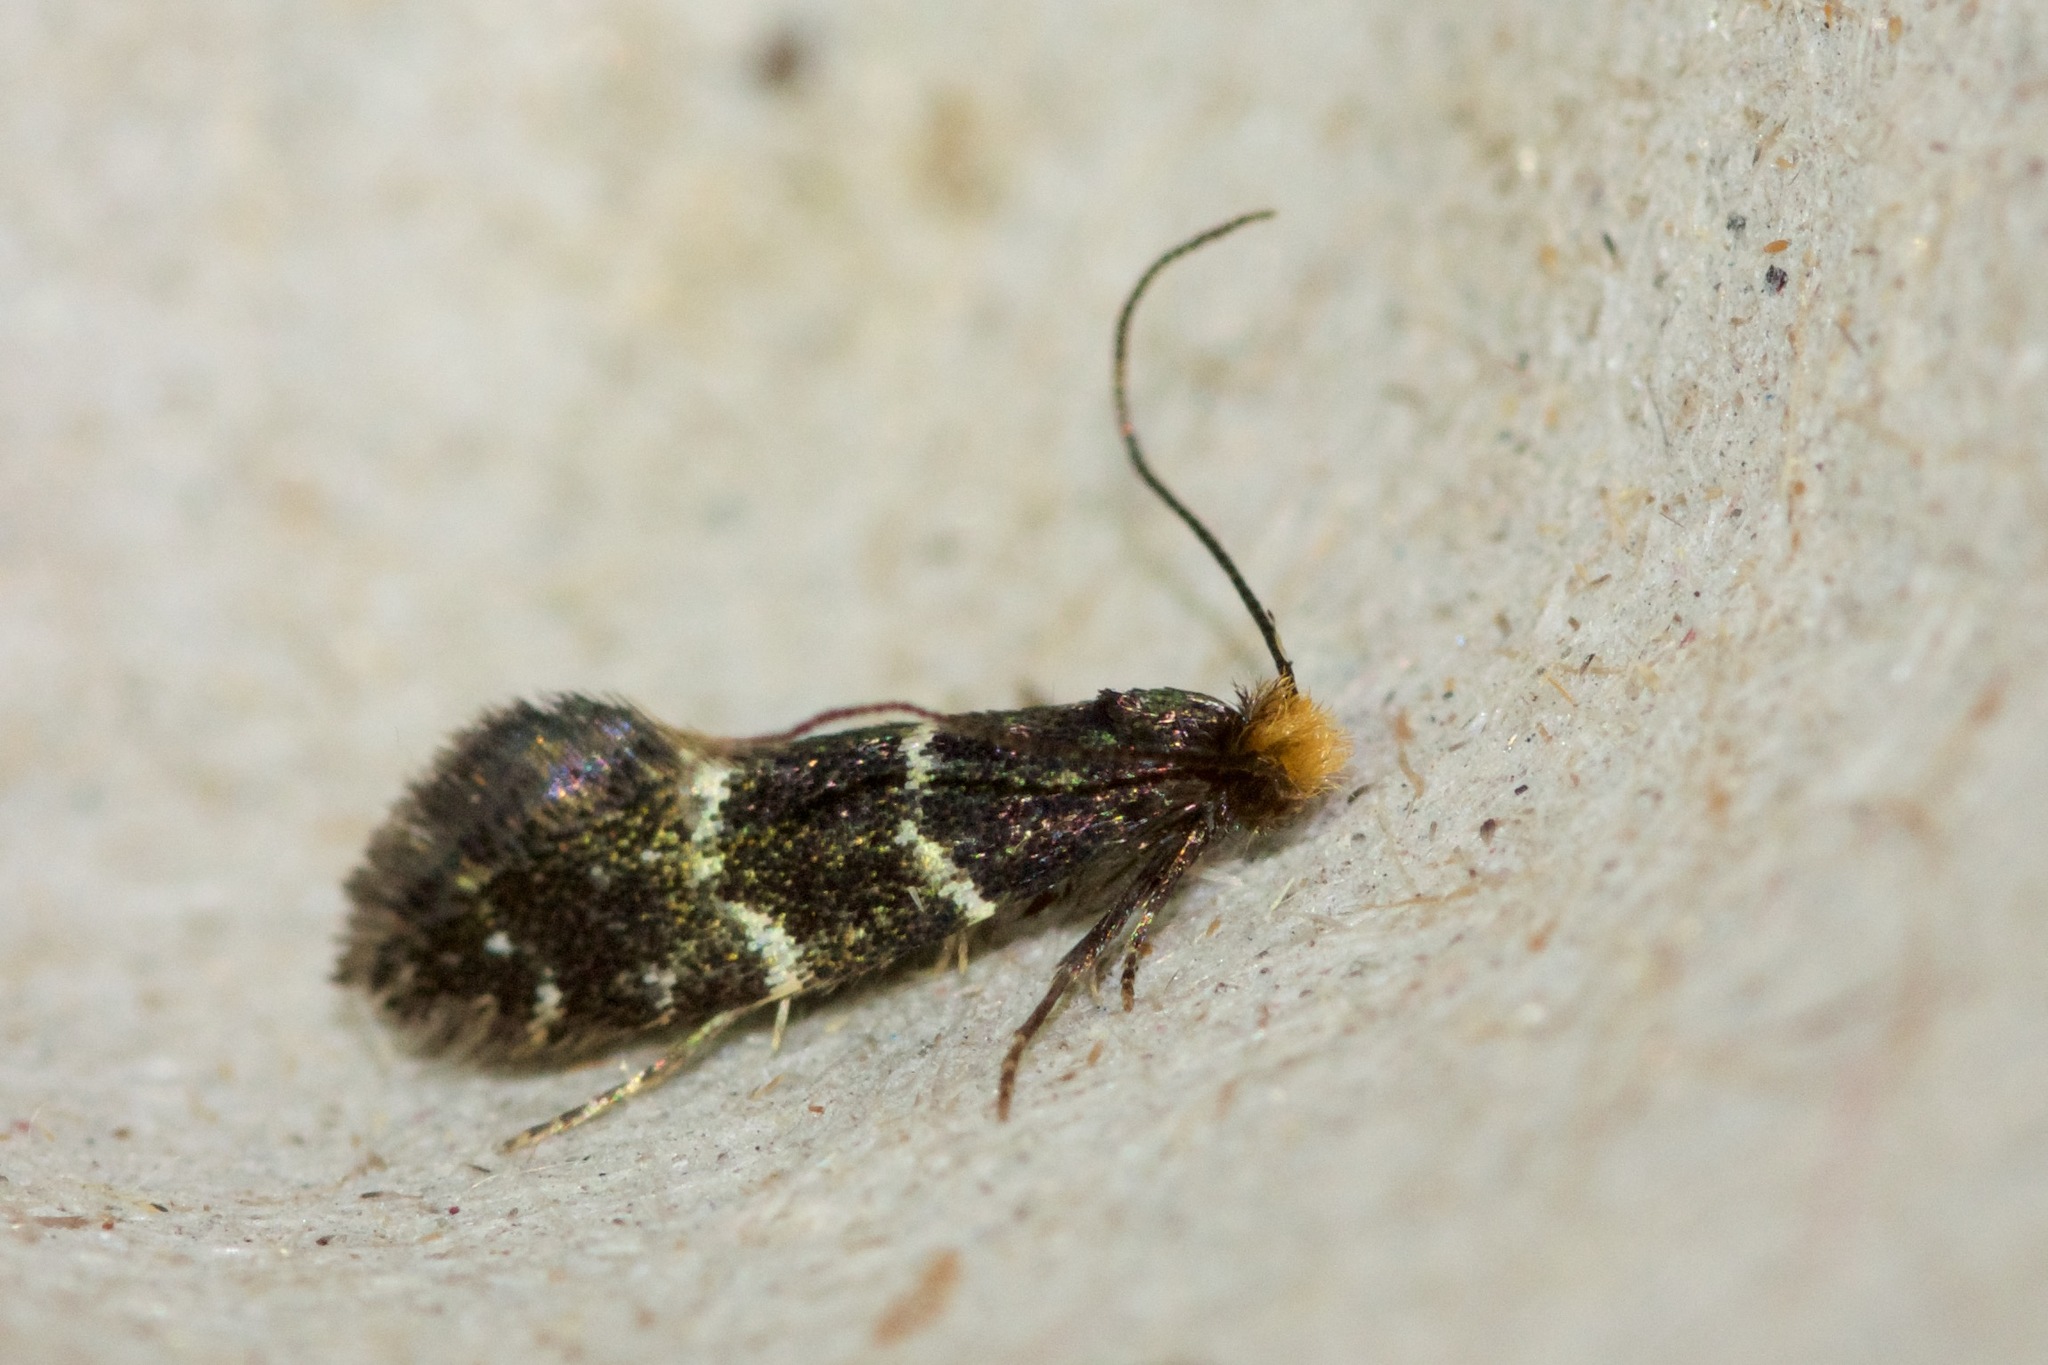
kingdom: Animalia
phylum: Arthropoda
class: Insecta
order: Lepidoptera
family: Meessiidae
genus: Eudarcia
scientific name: Eudarcia eunitariaeella
